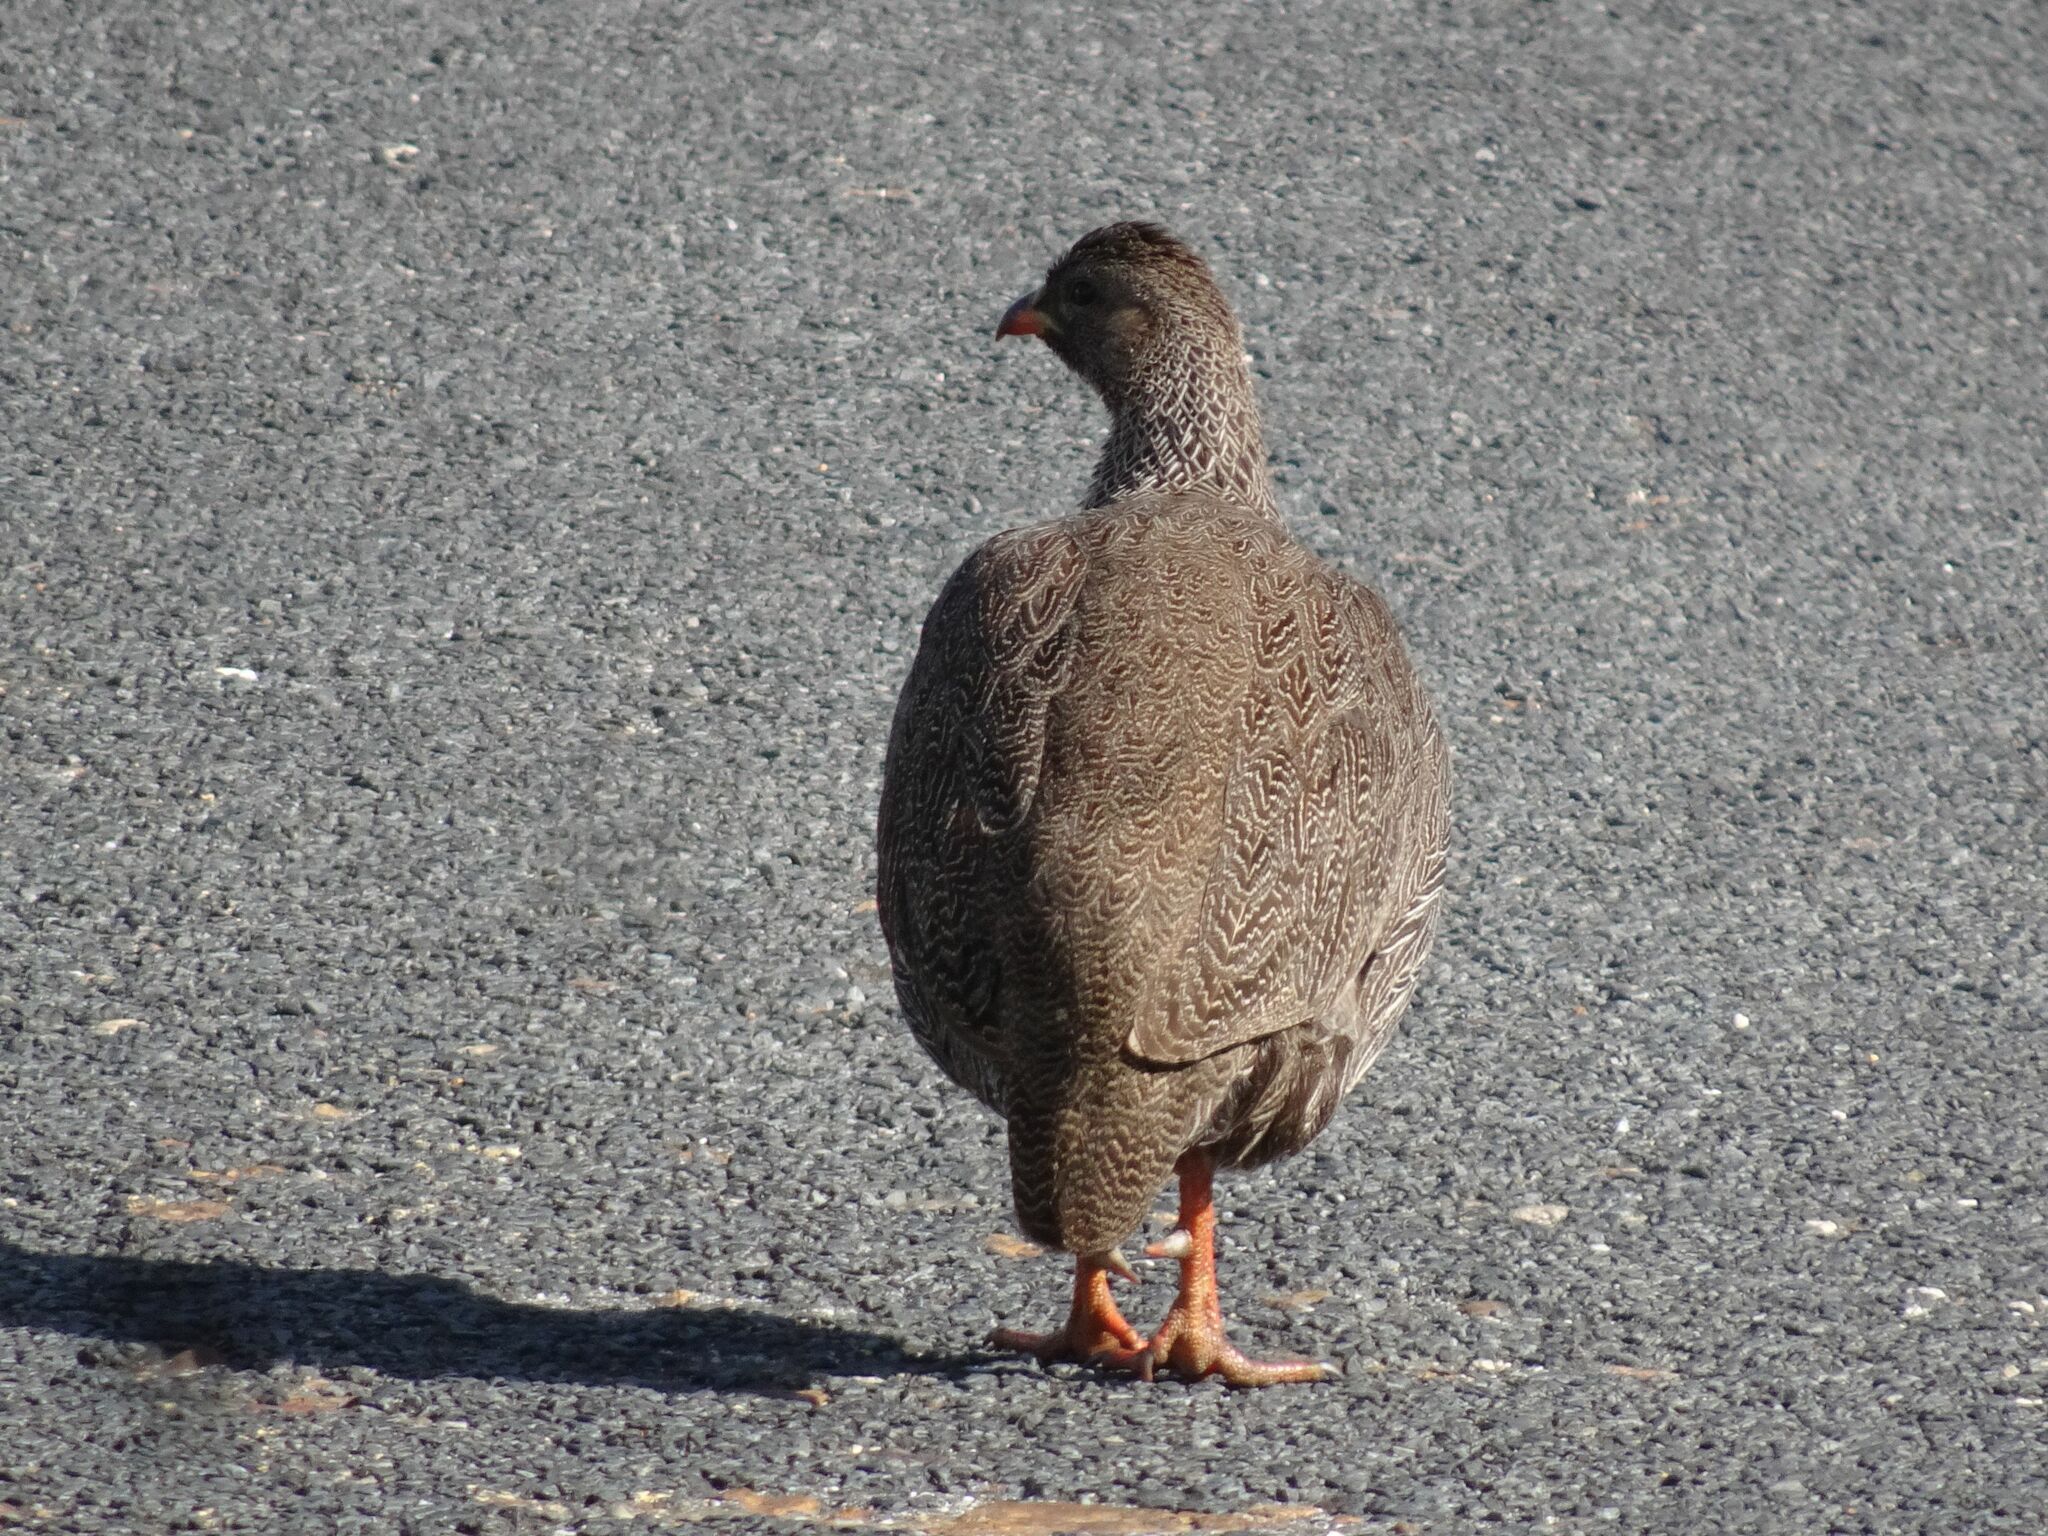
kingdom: Animalia
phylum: Chordata
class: Aves
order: Galliformes
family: Phasianidae
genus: Pternistis
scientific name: Pternistis capensis
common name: Cape spurfowl
